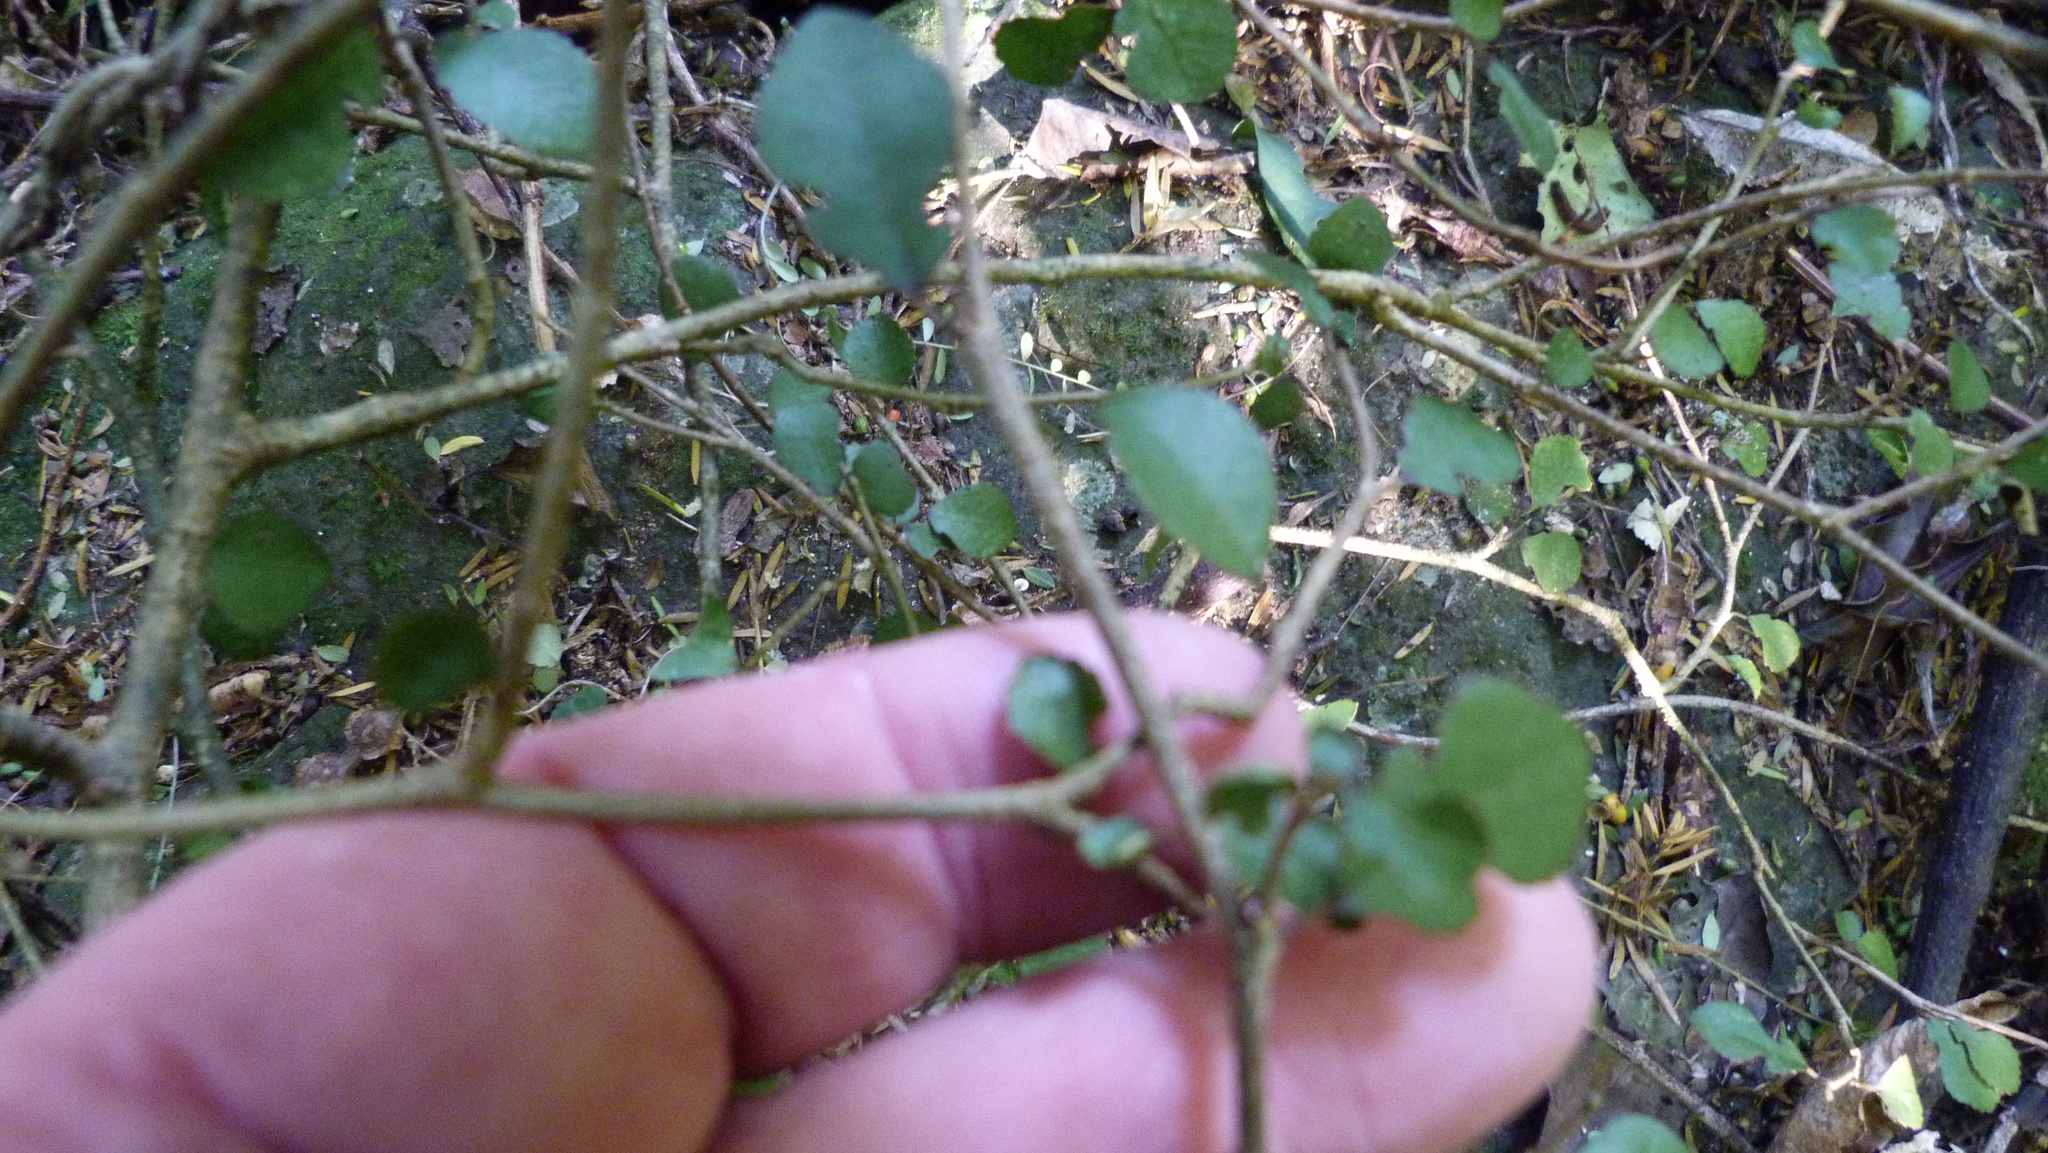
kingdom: Plantae
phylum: Tracheophyta
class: Magnoliopsida
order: Rosales
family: Moraceae
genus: Paratrophis
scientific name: Paratrophis microphylla
